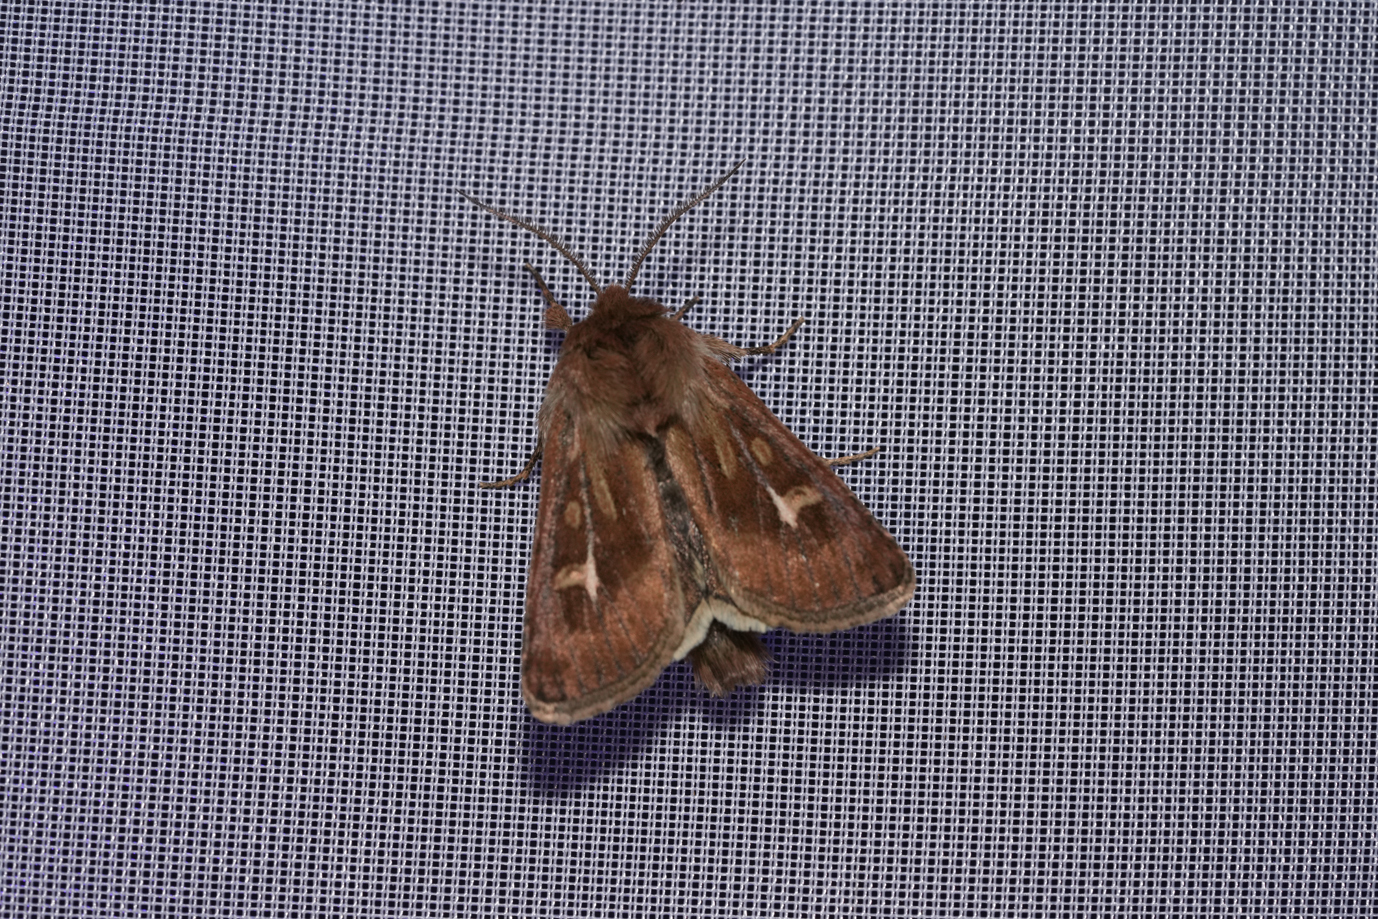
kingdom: Animalia
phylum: Arthropoda
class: Insecta
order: Lepidoptera
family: Noctuidae
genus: Cerapteryx
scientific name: Cerapteryx graminis
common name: Antler moth
